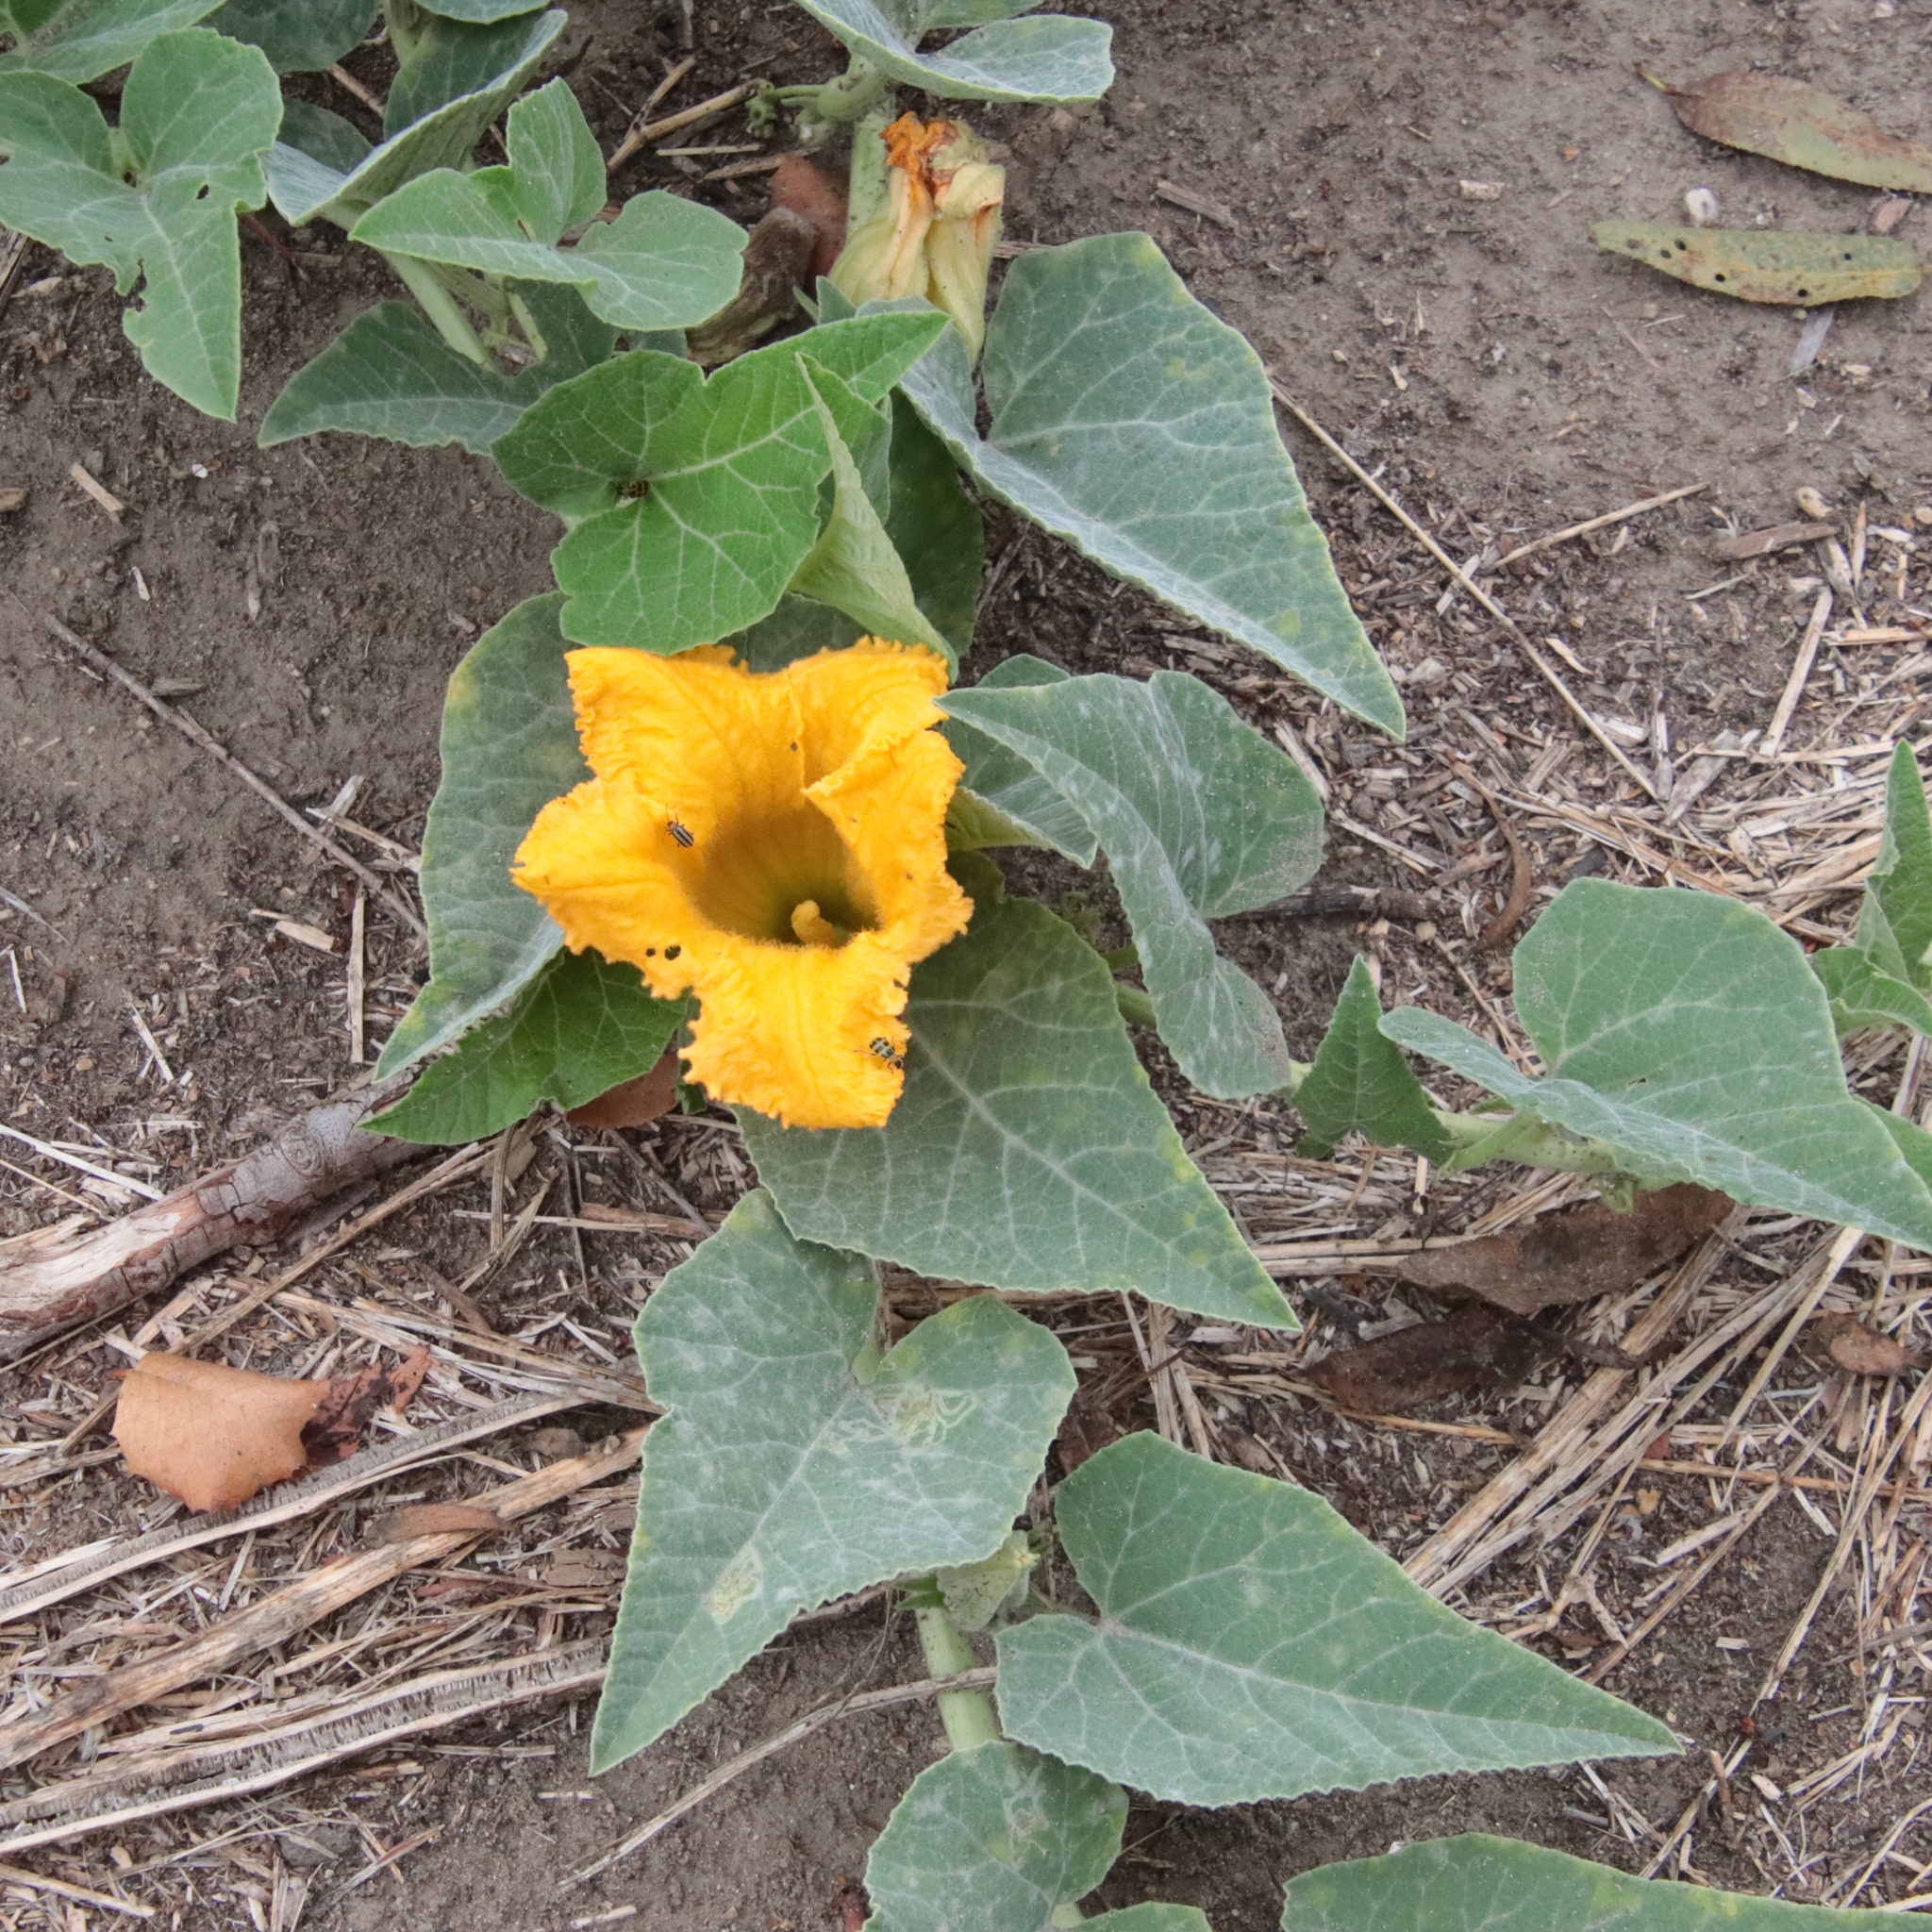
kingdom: Plantae
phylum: Tracheophyta
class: Magnoliopsida
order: Cucurbitales
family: Cucurbitaceae
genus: Cucurbita
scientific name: Cucurbita foetidissima
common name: Buffalo gourd
